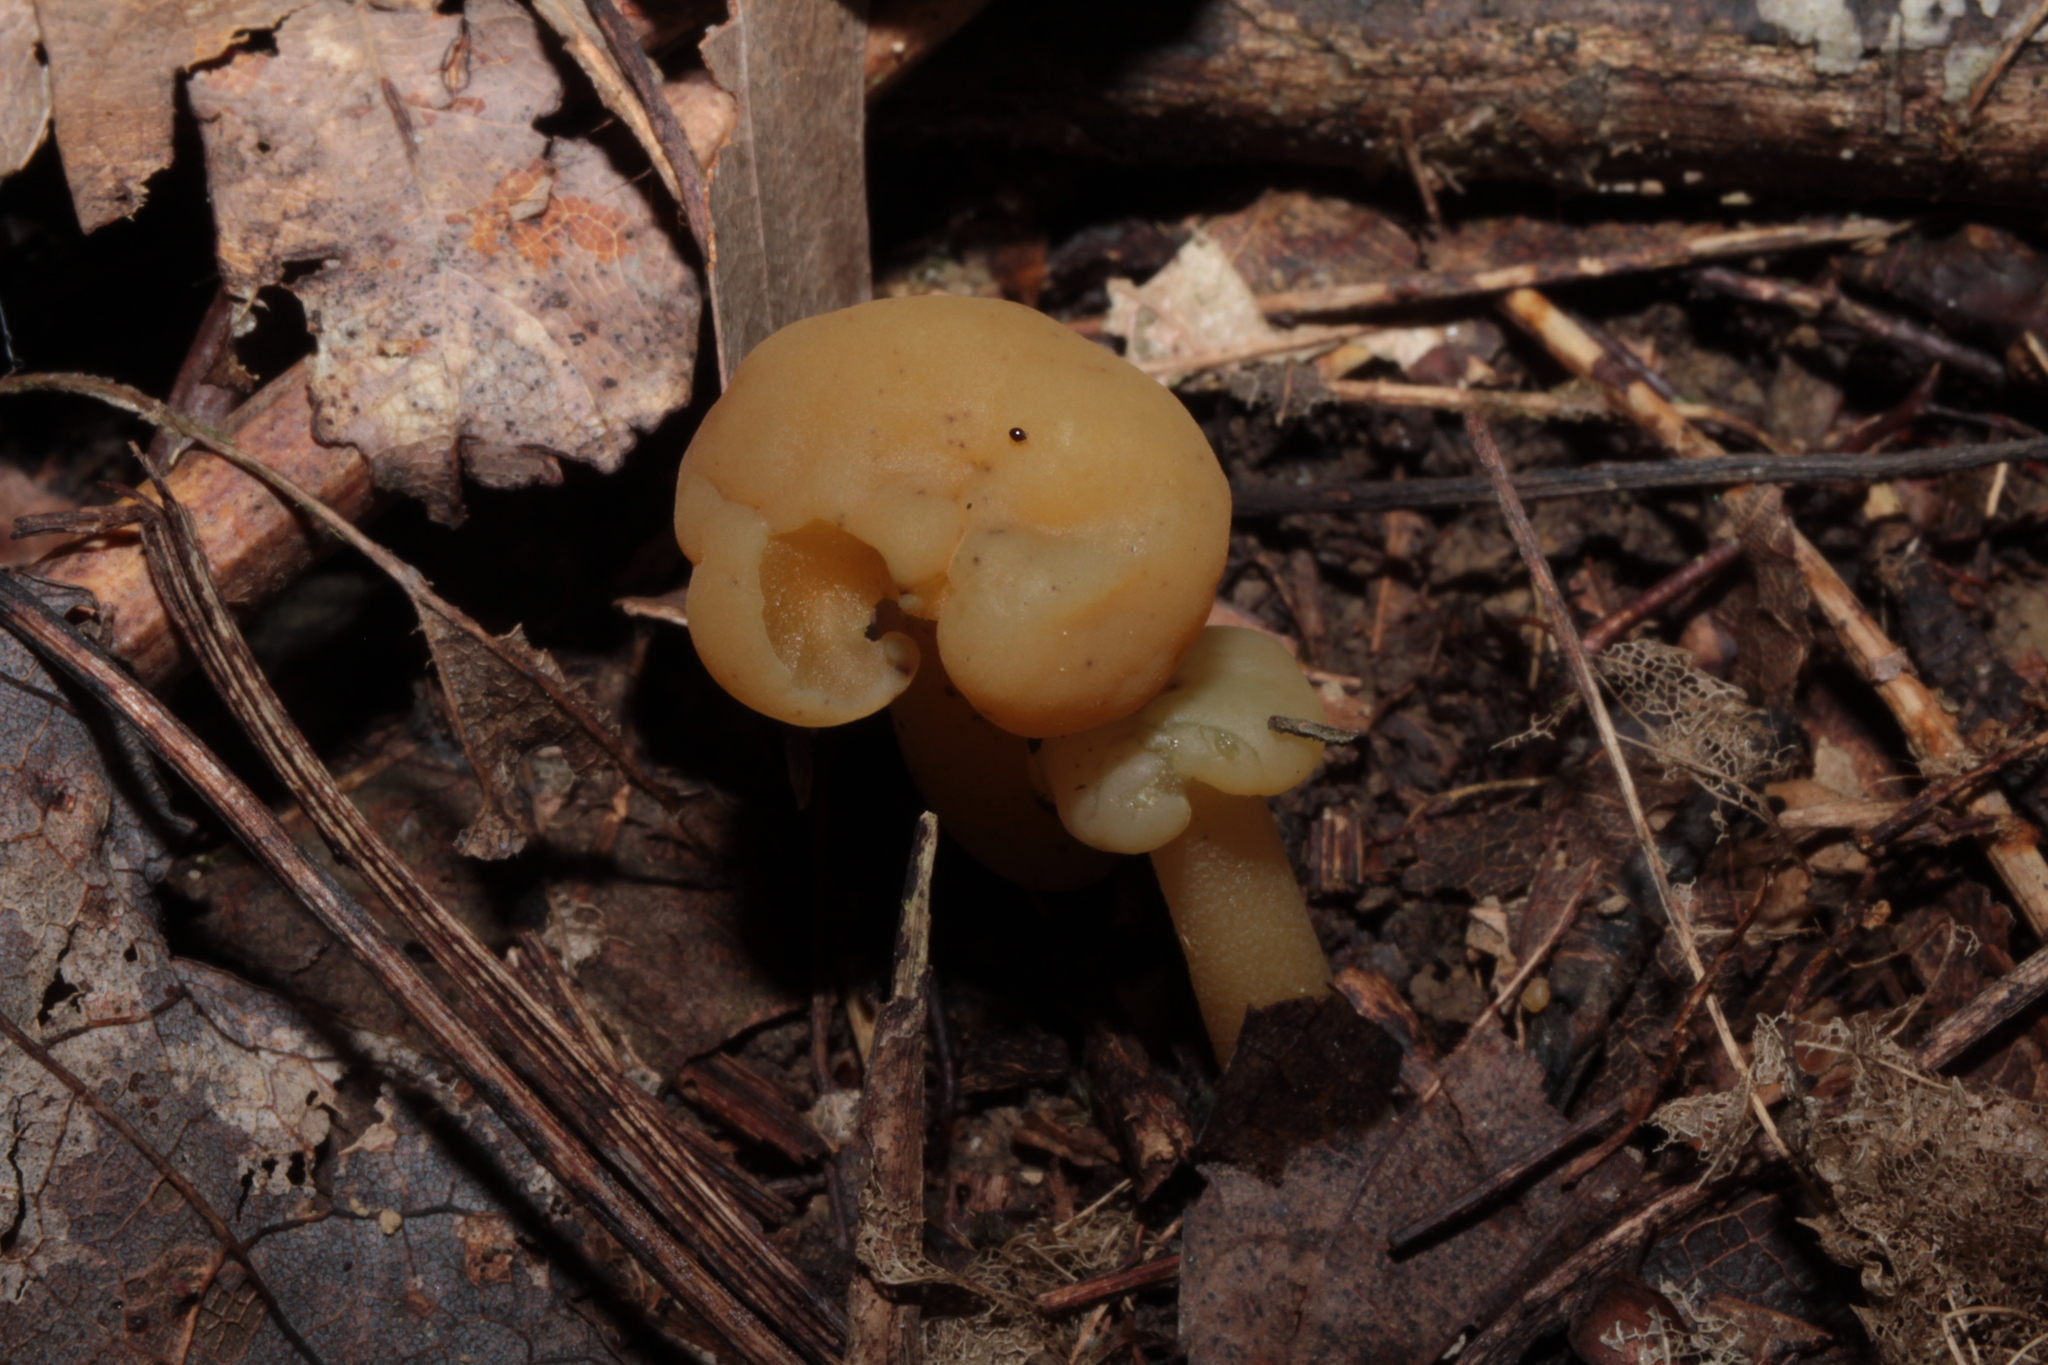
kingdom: Fungi
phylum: Ascomycota
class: Leotiomycetes
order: Leotiales
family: Leotiaceae
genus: Leotia
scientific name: Leotia lubrica
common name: Jellybaby
